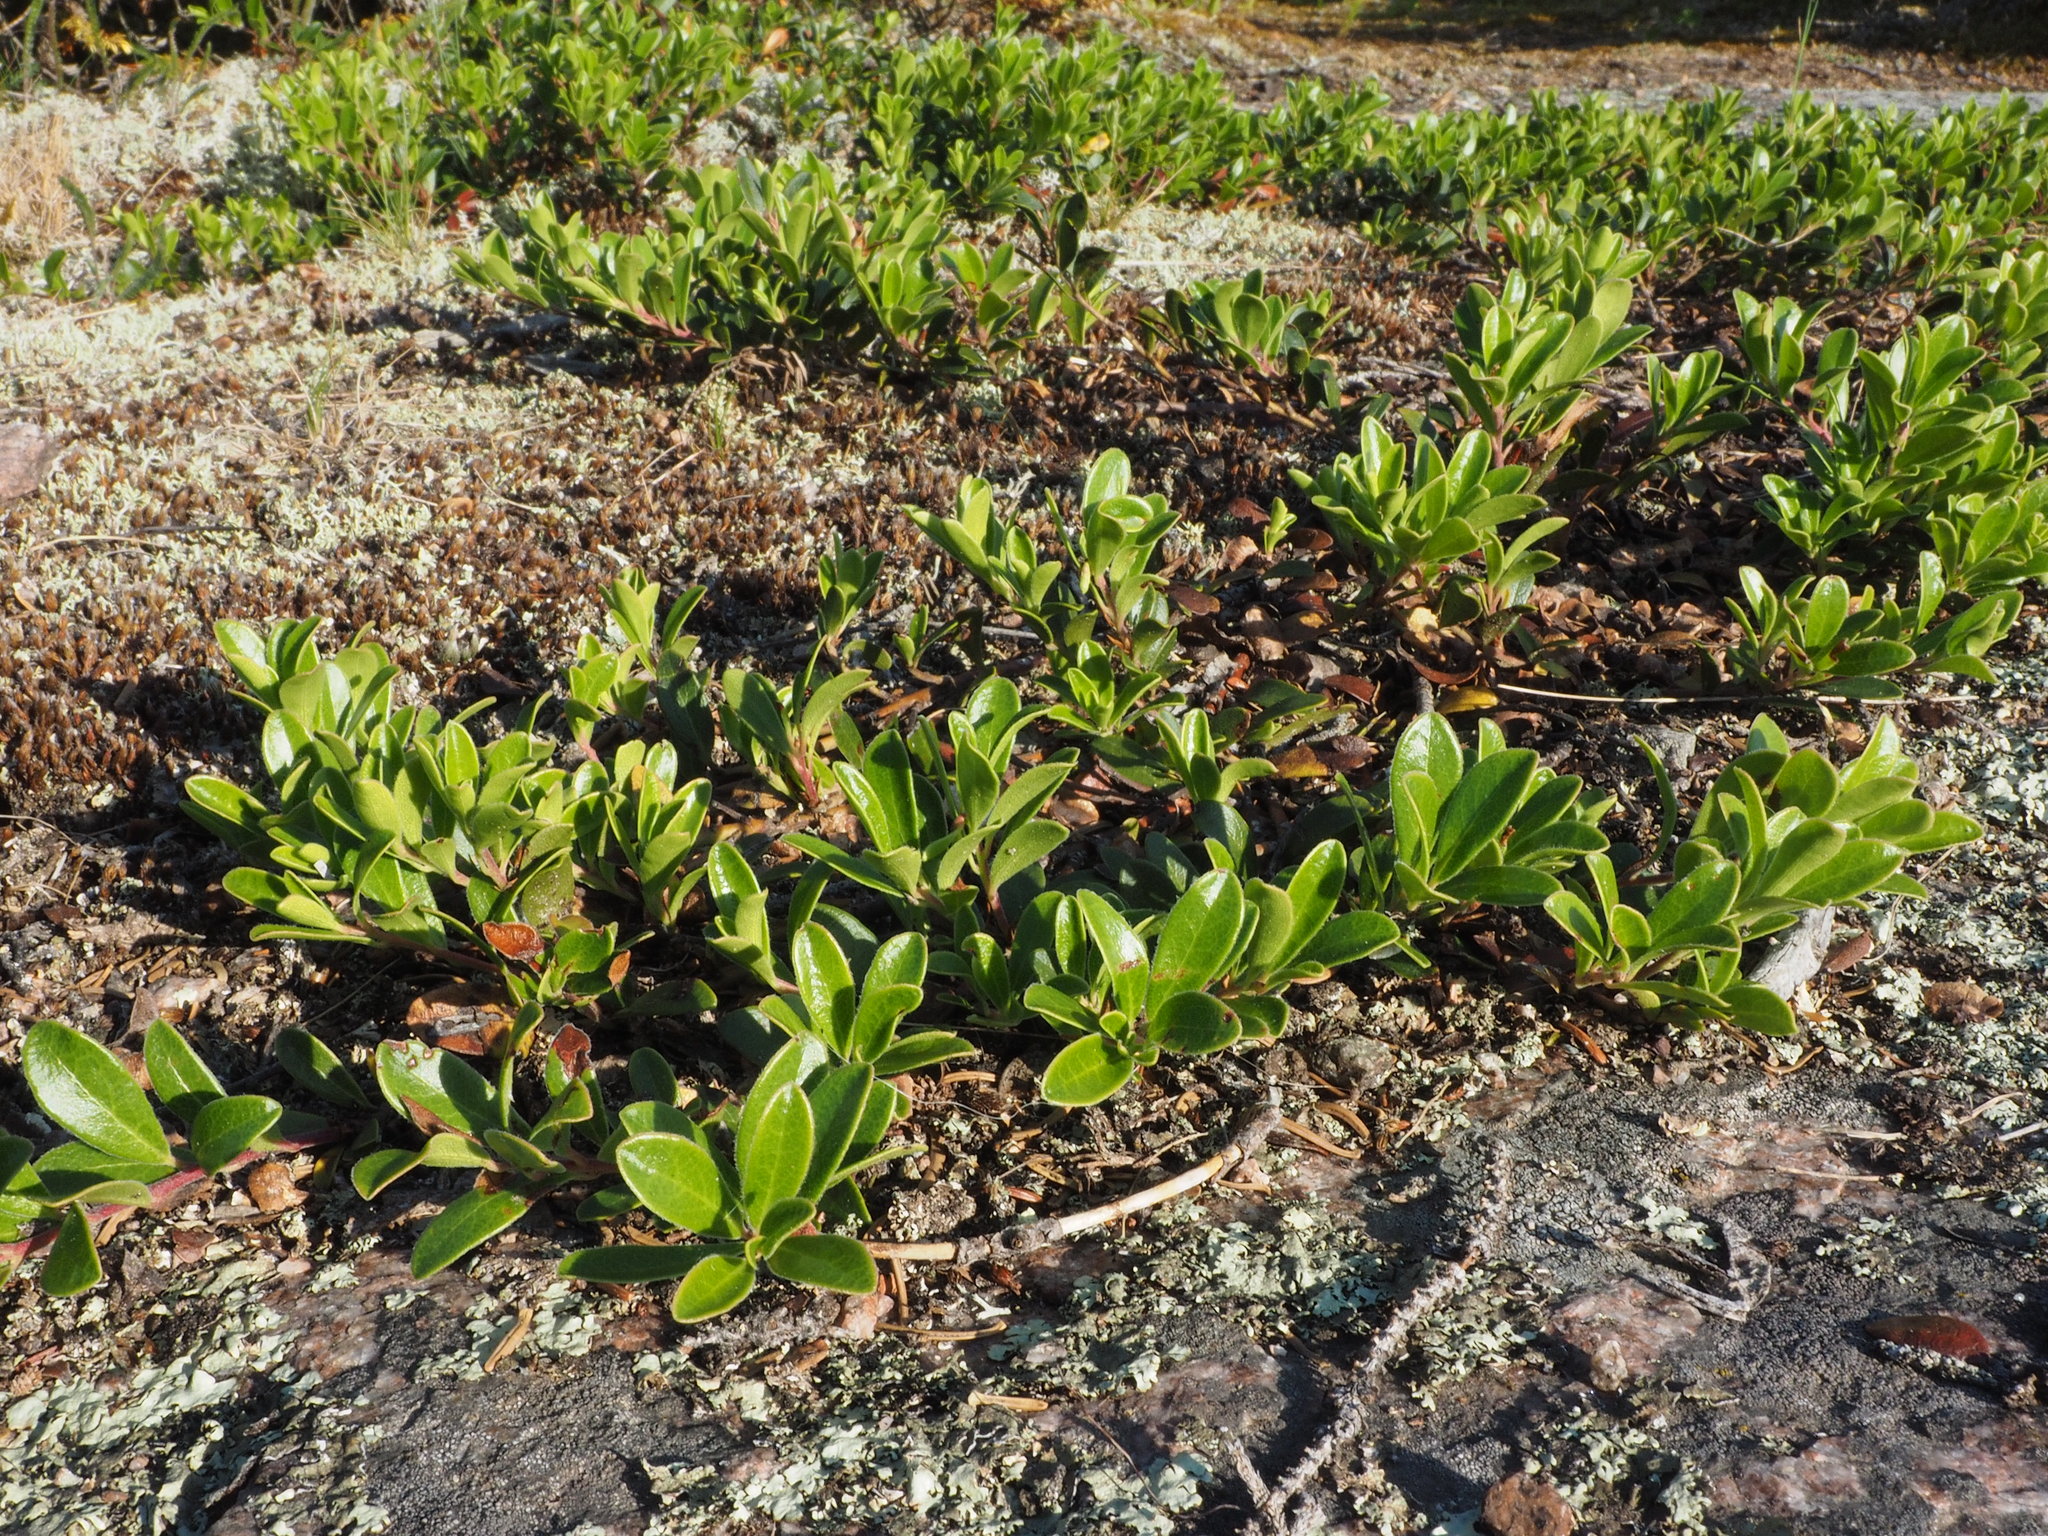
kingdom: Plantae
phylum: Tracheophyta
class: Magnoliopsida
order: Ericales
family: Ericaceae
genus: Arctostaphylos
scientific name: Arctostaphylos uva-ursi
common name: Bearberry
